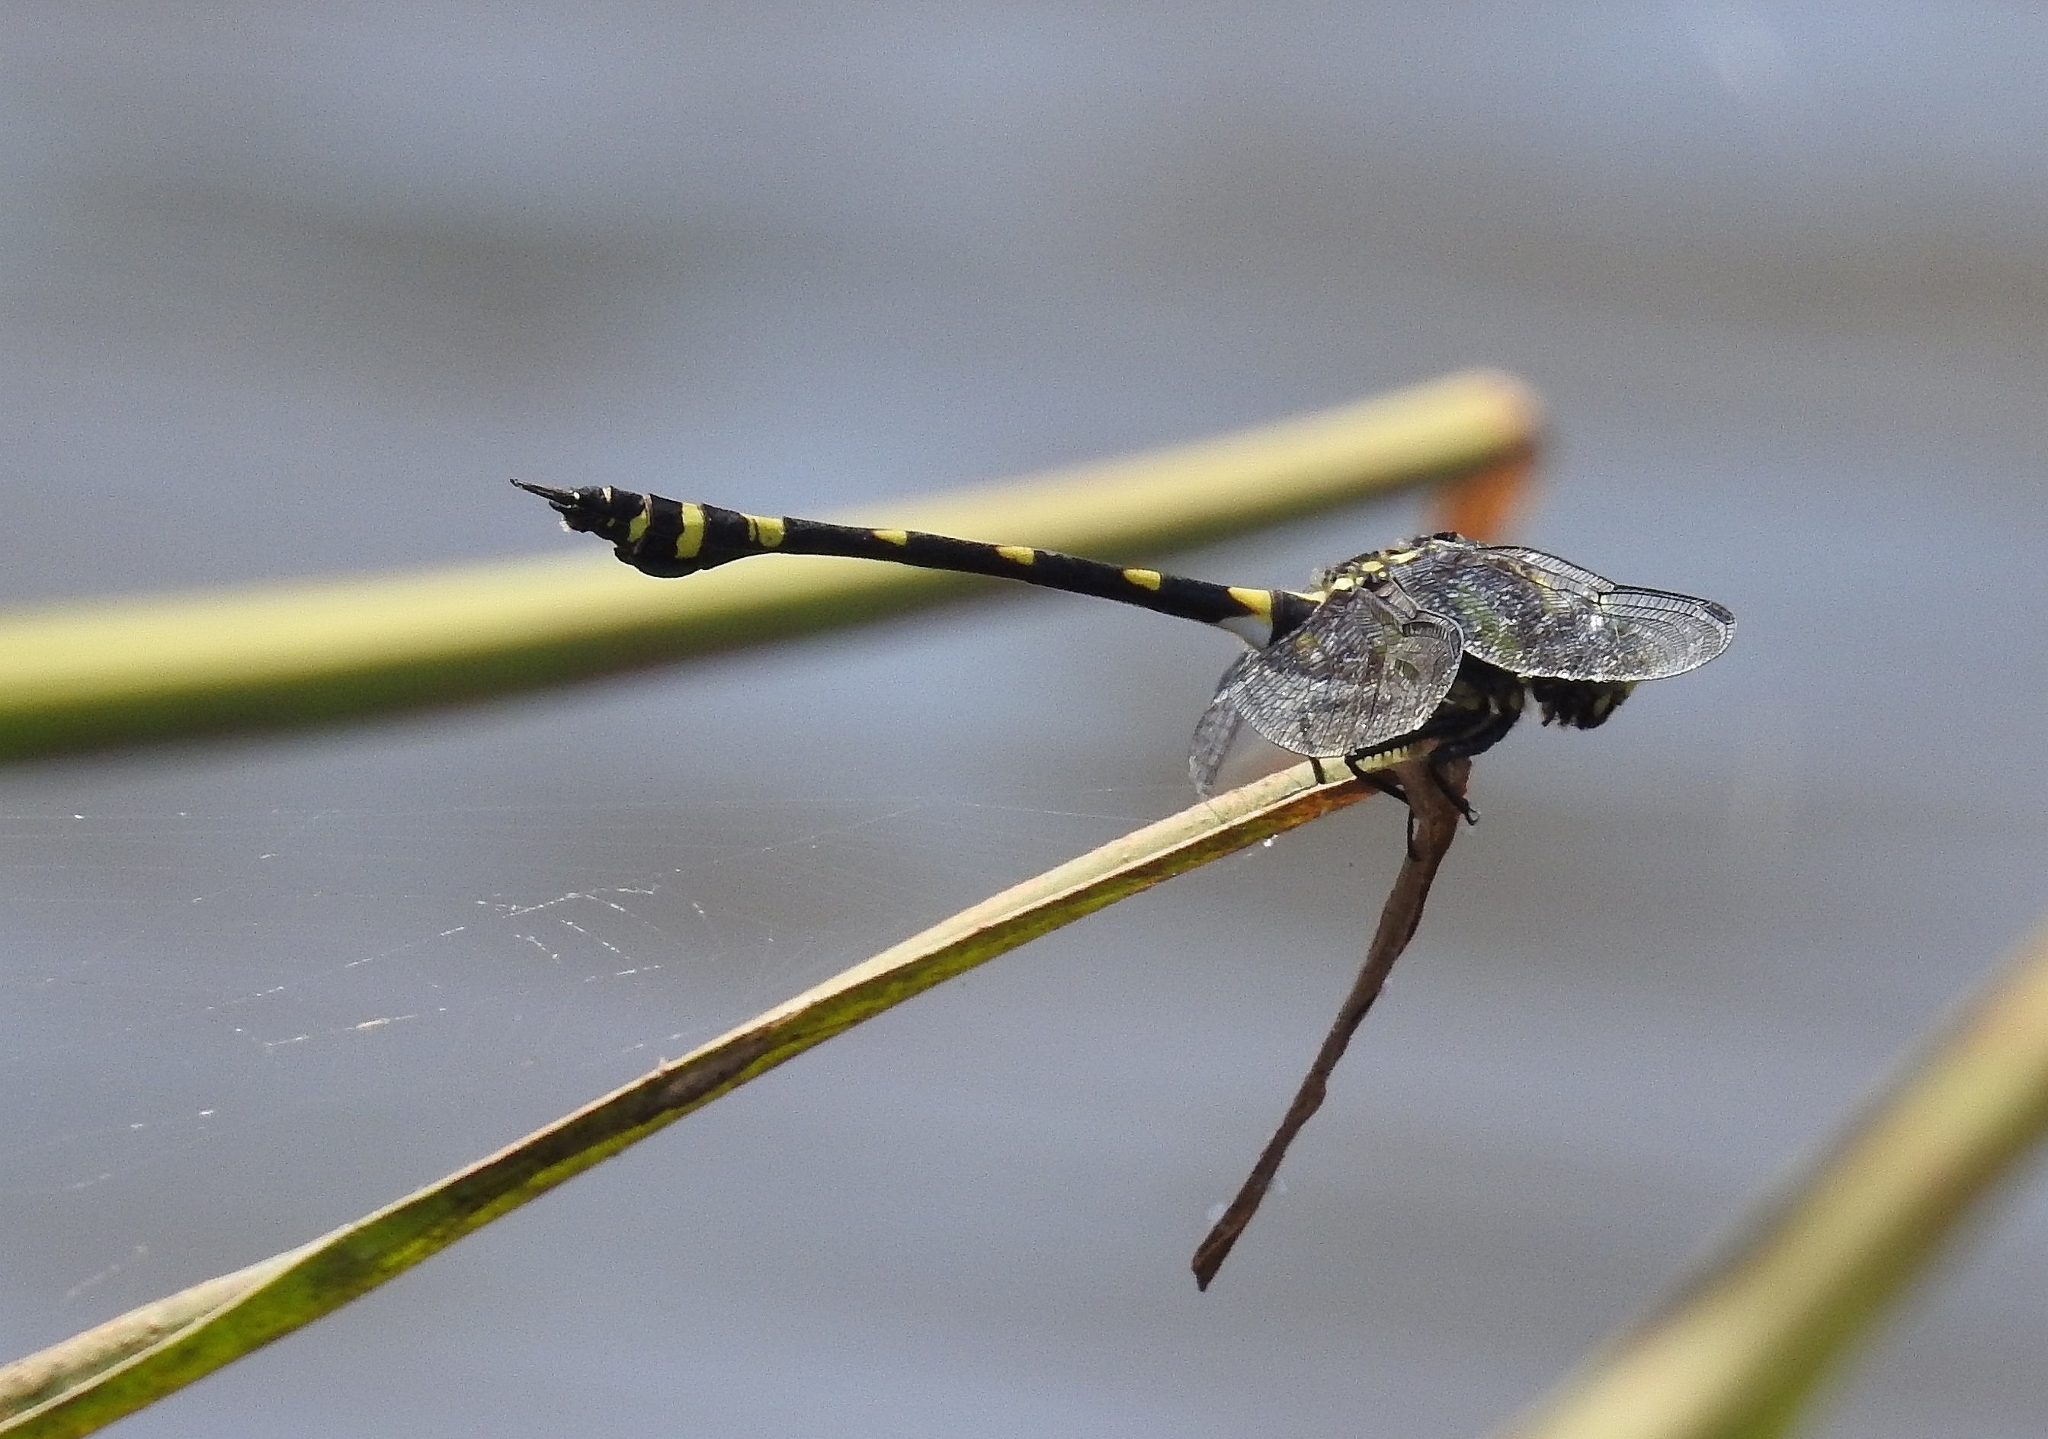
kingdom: Animalia
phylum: Arthropoda
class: Insecta
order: Odonata
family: Gomphidae
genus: Ictinogomphus
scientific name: Ictinogomphus rapax
